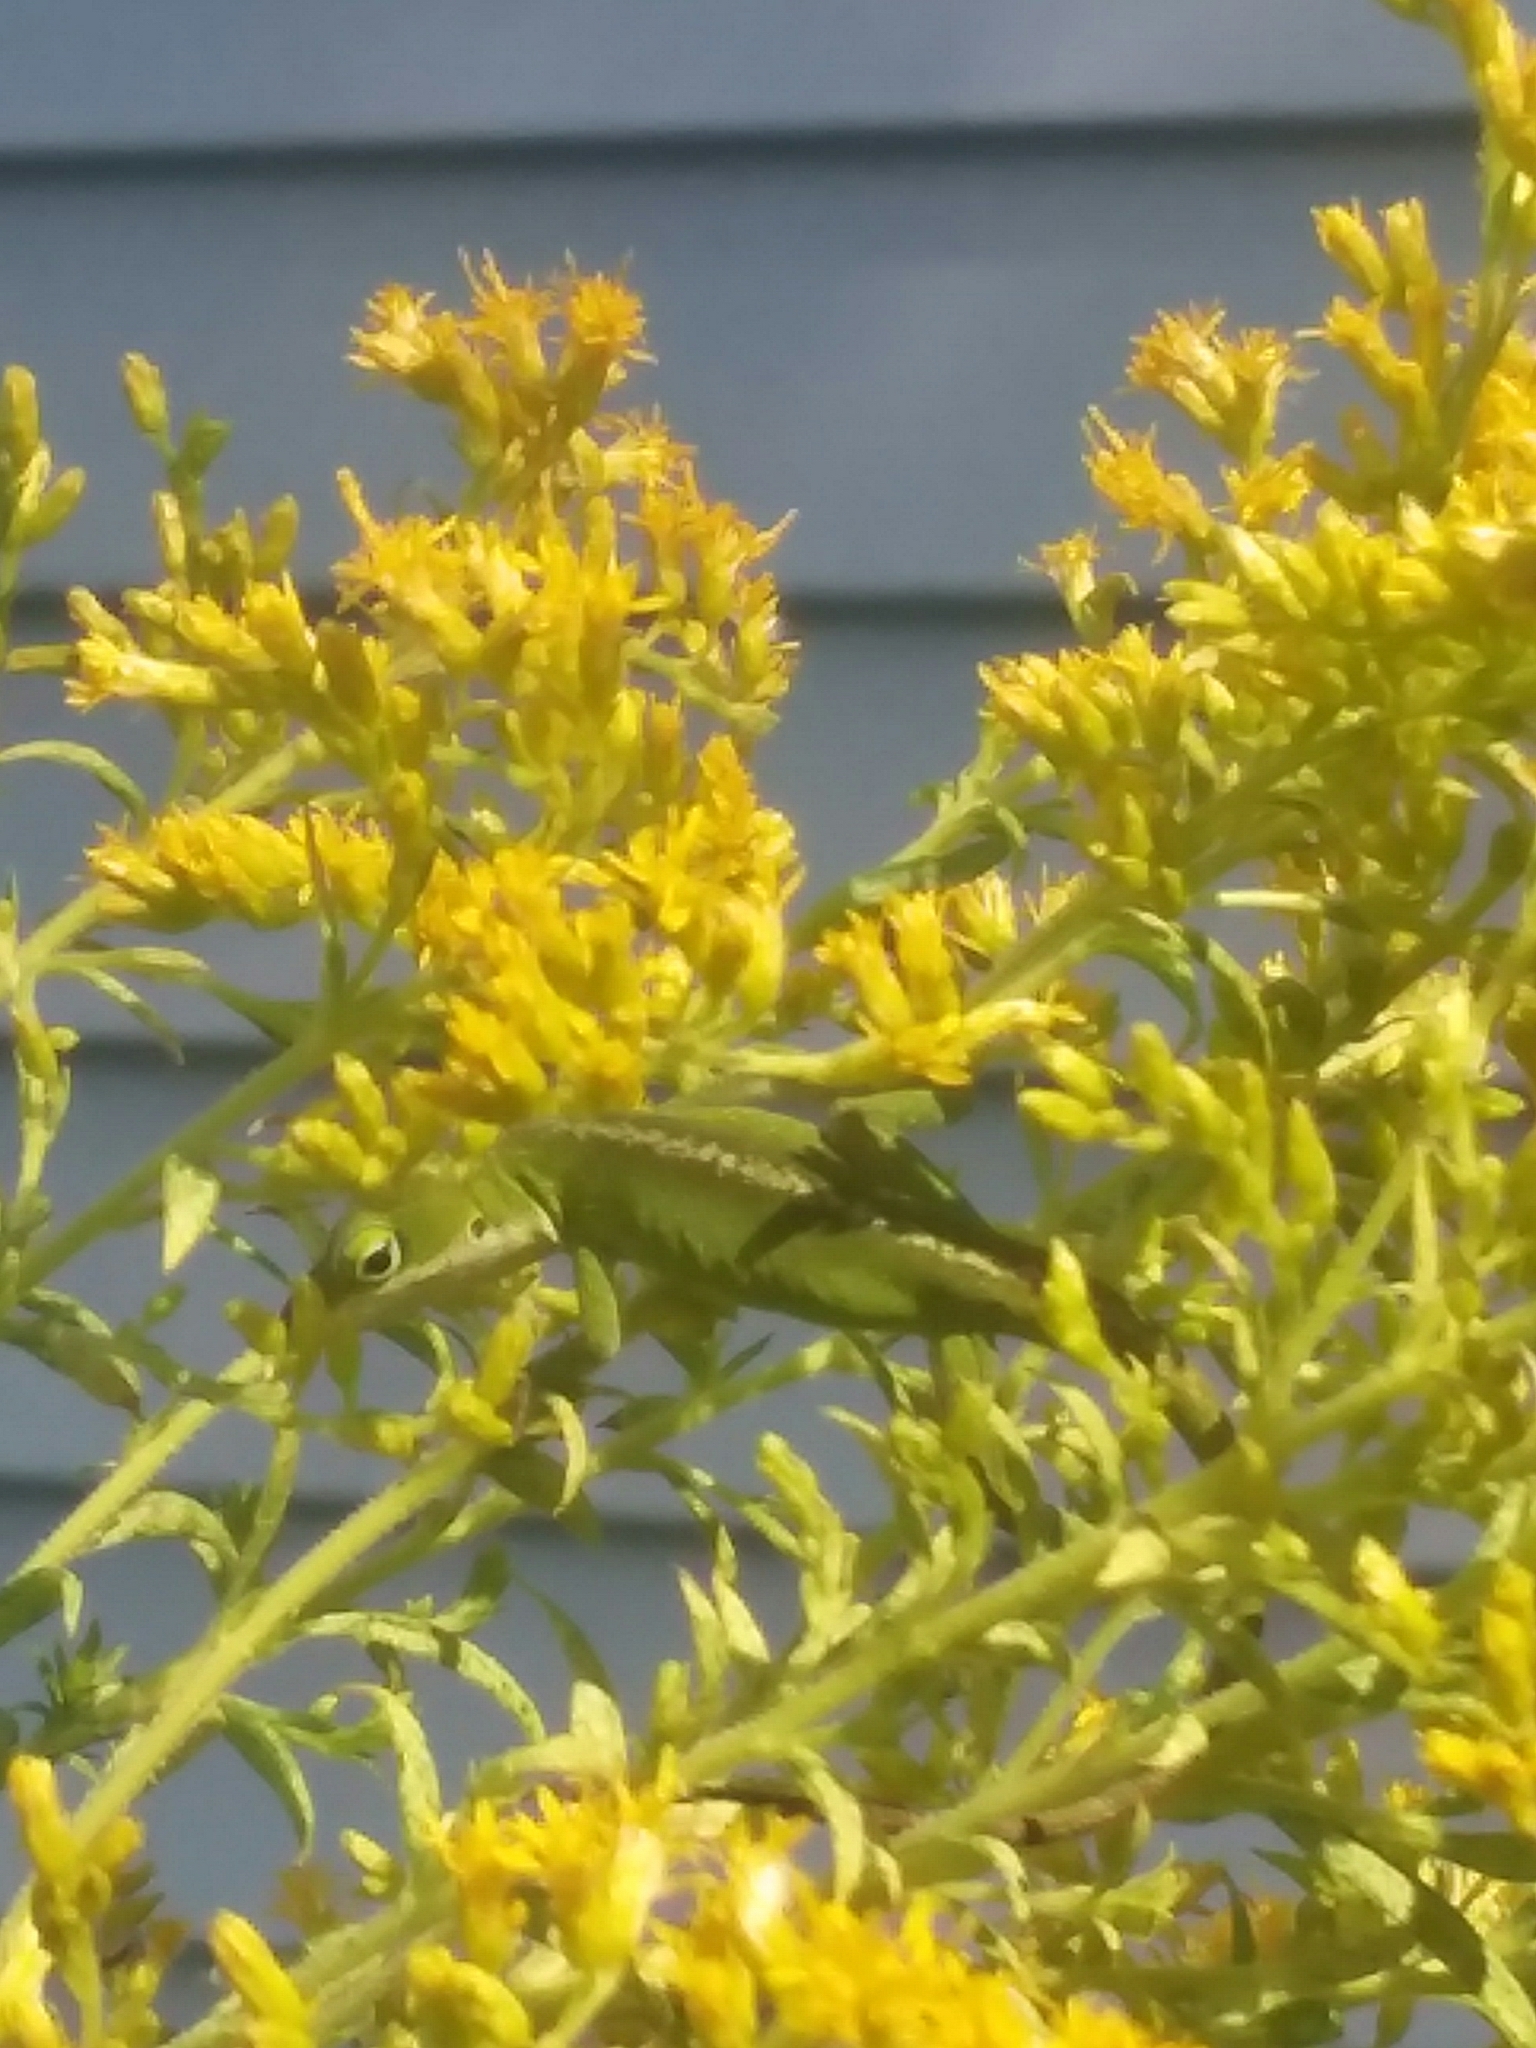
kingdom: Animalia
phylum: Chordata
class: Squamata
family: Dactyloidae
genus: Anolis
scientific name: Anolis carolinensis
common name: Green anole
